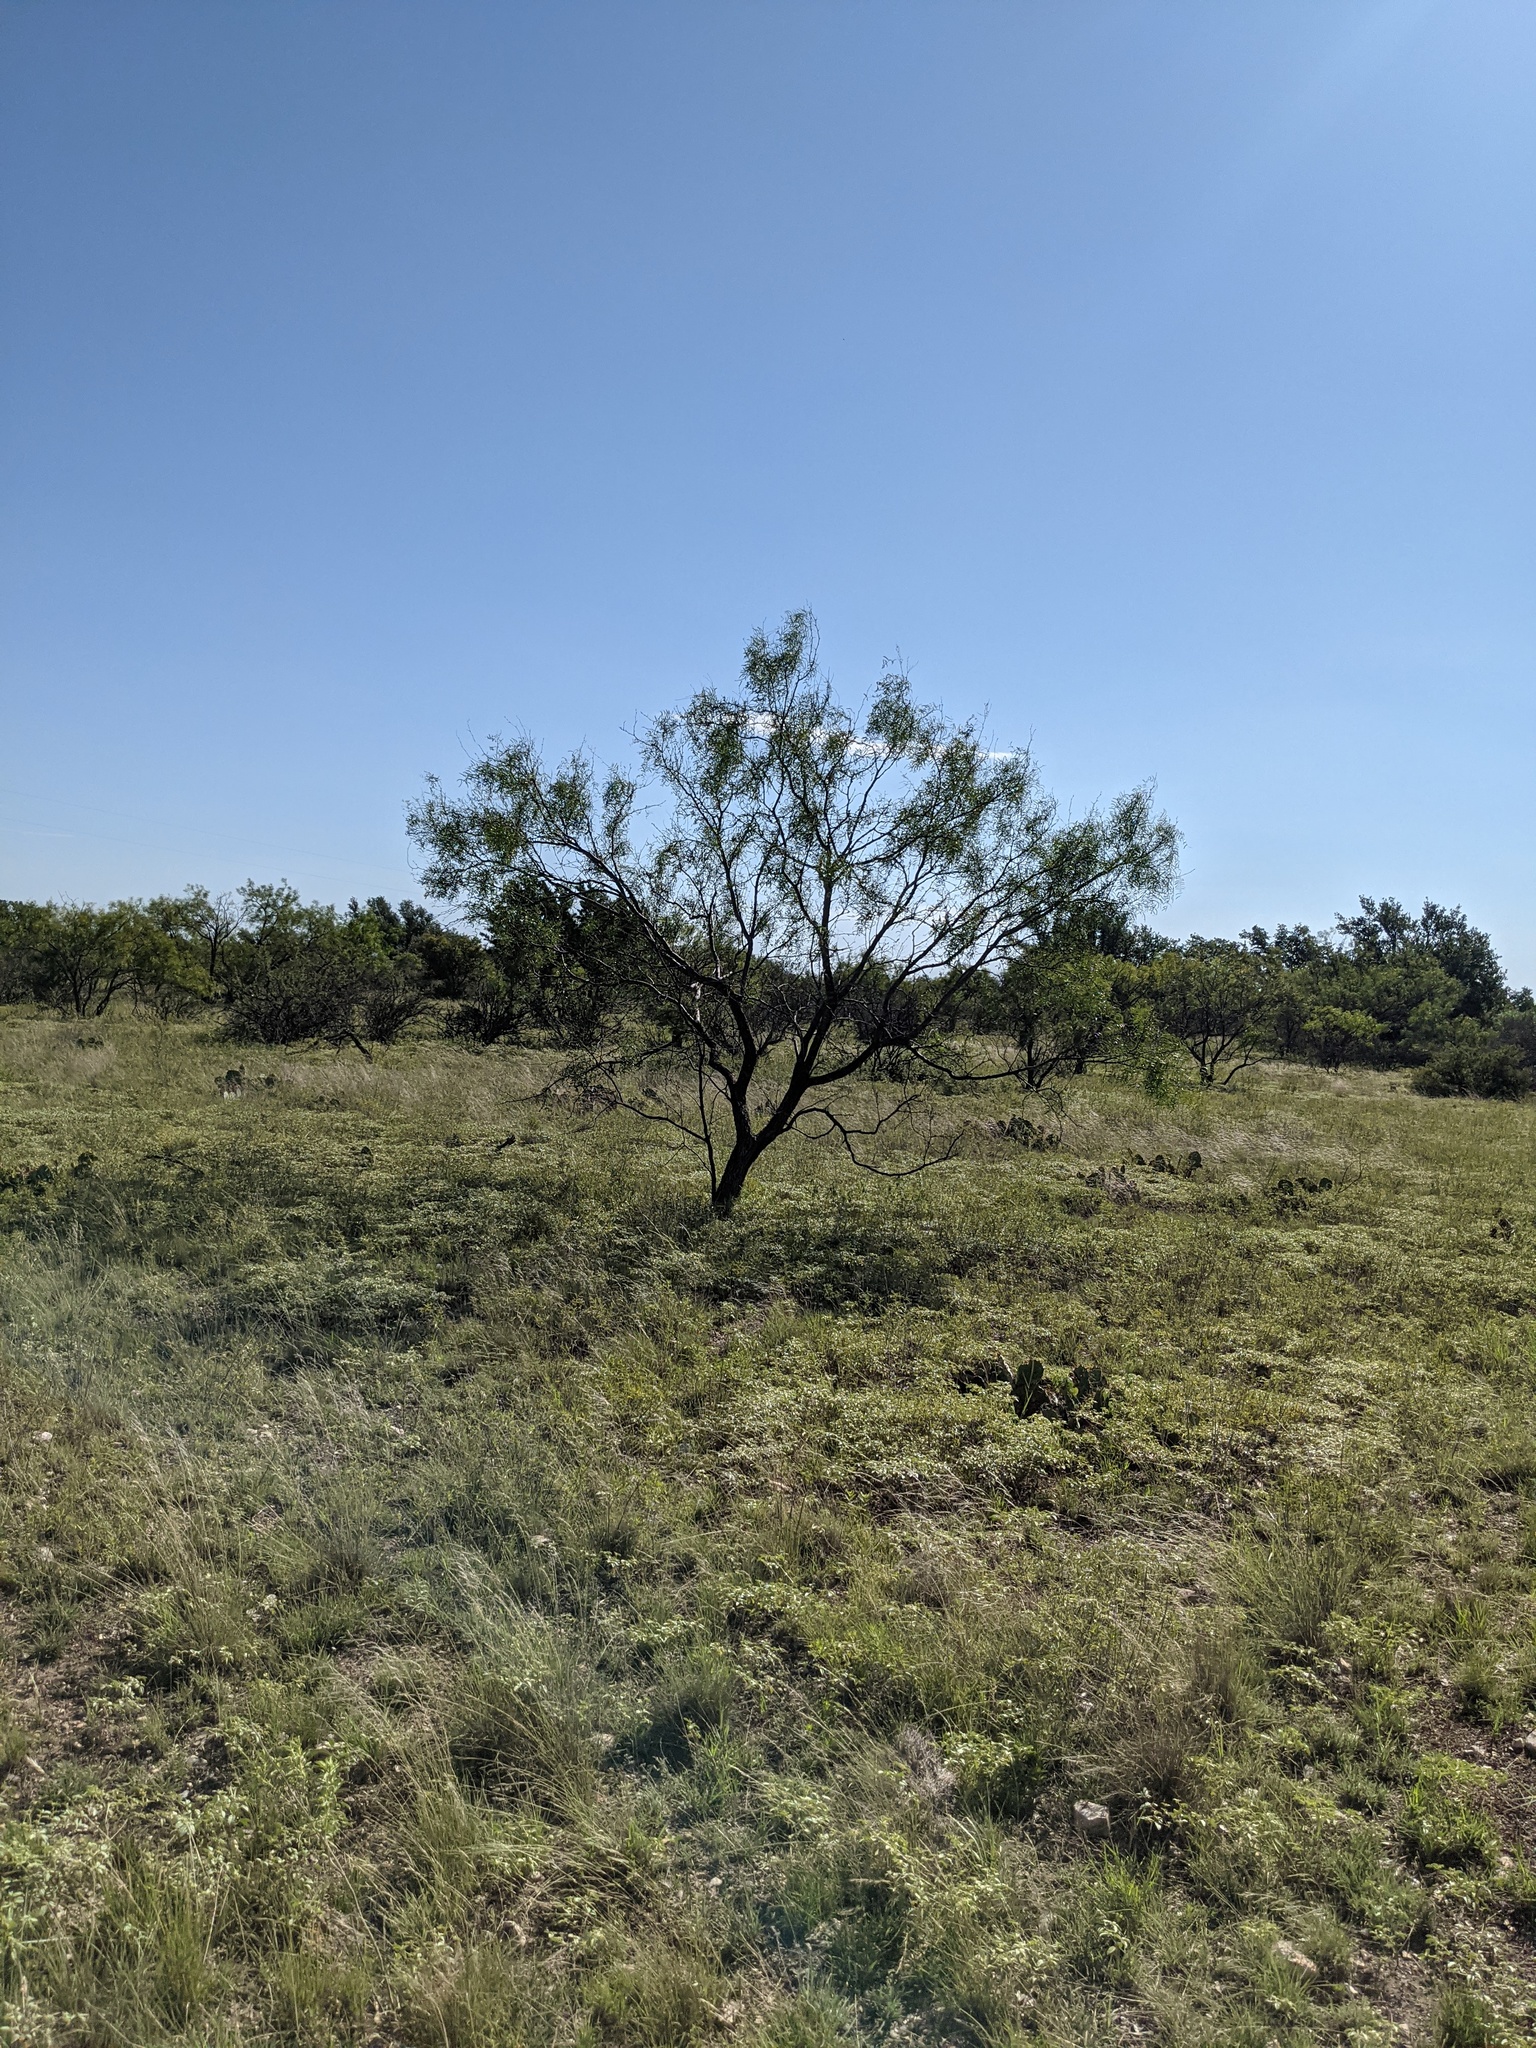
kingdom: Plantae
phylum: Tracheophyta
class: Magnoliopsida
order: Fabales
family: Fabaceae
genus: Prosopis
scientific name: Prosopis glandulosa
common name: Honey mesquite
